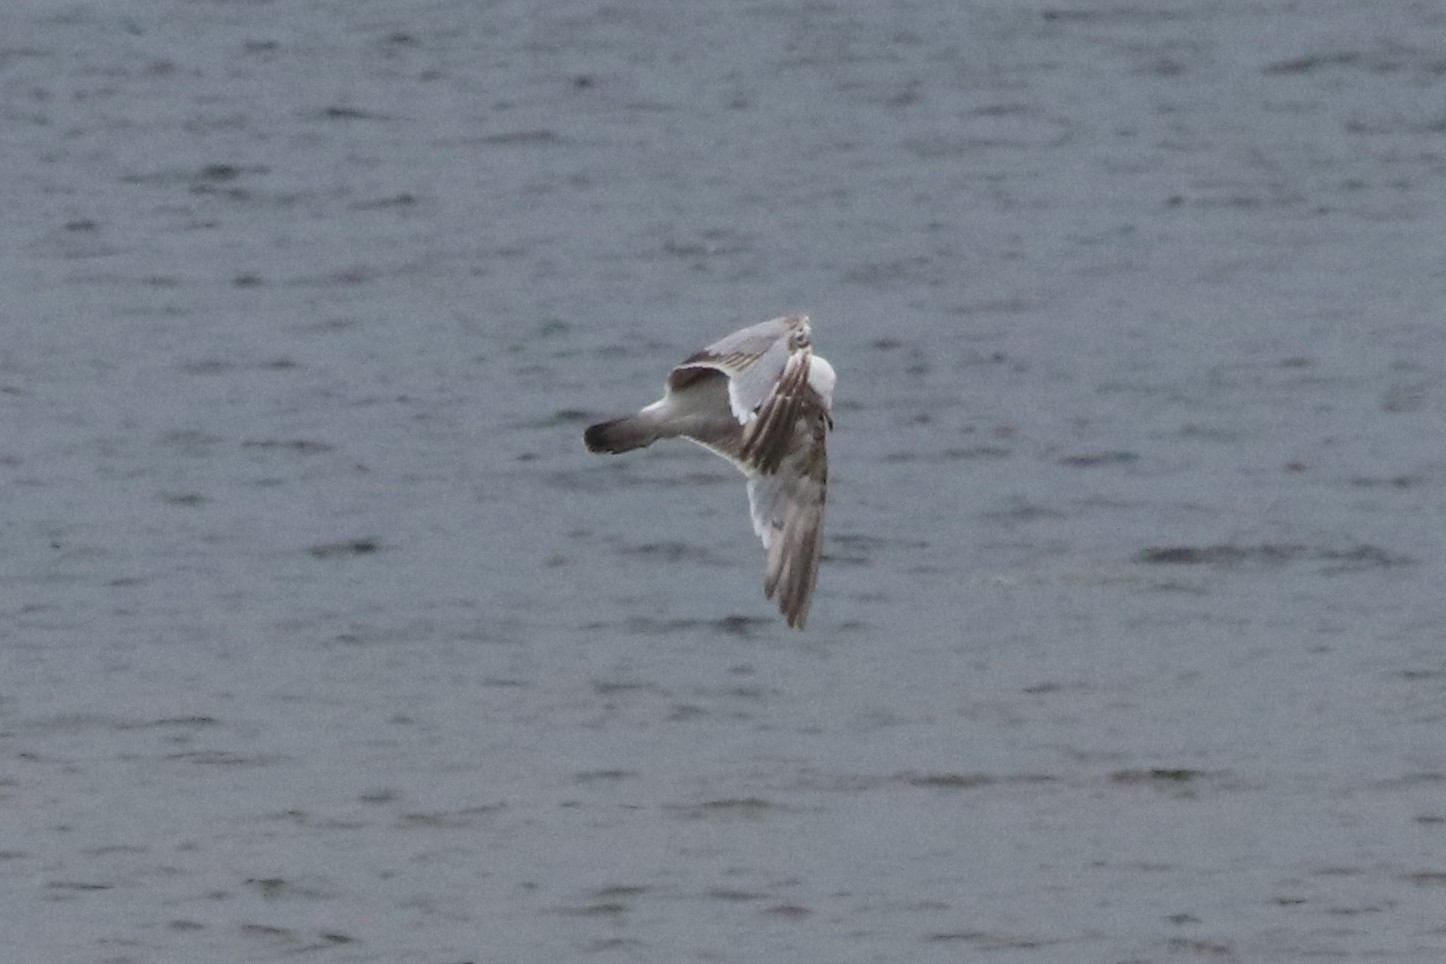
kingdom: Animalia
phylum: Chordata
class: Aves
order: Charadriiformes
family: Laridae
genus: Larus
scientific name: Larus delawarensis
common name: Ring-billed gull
